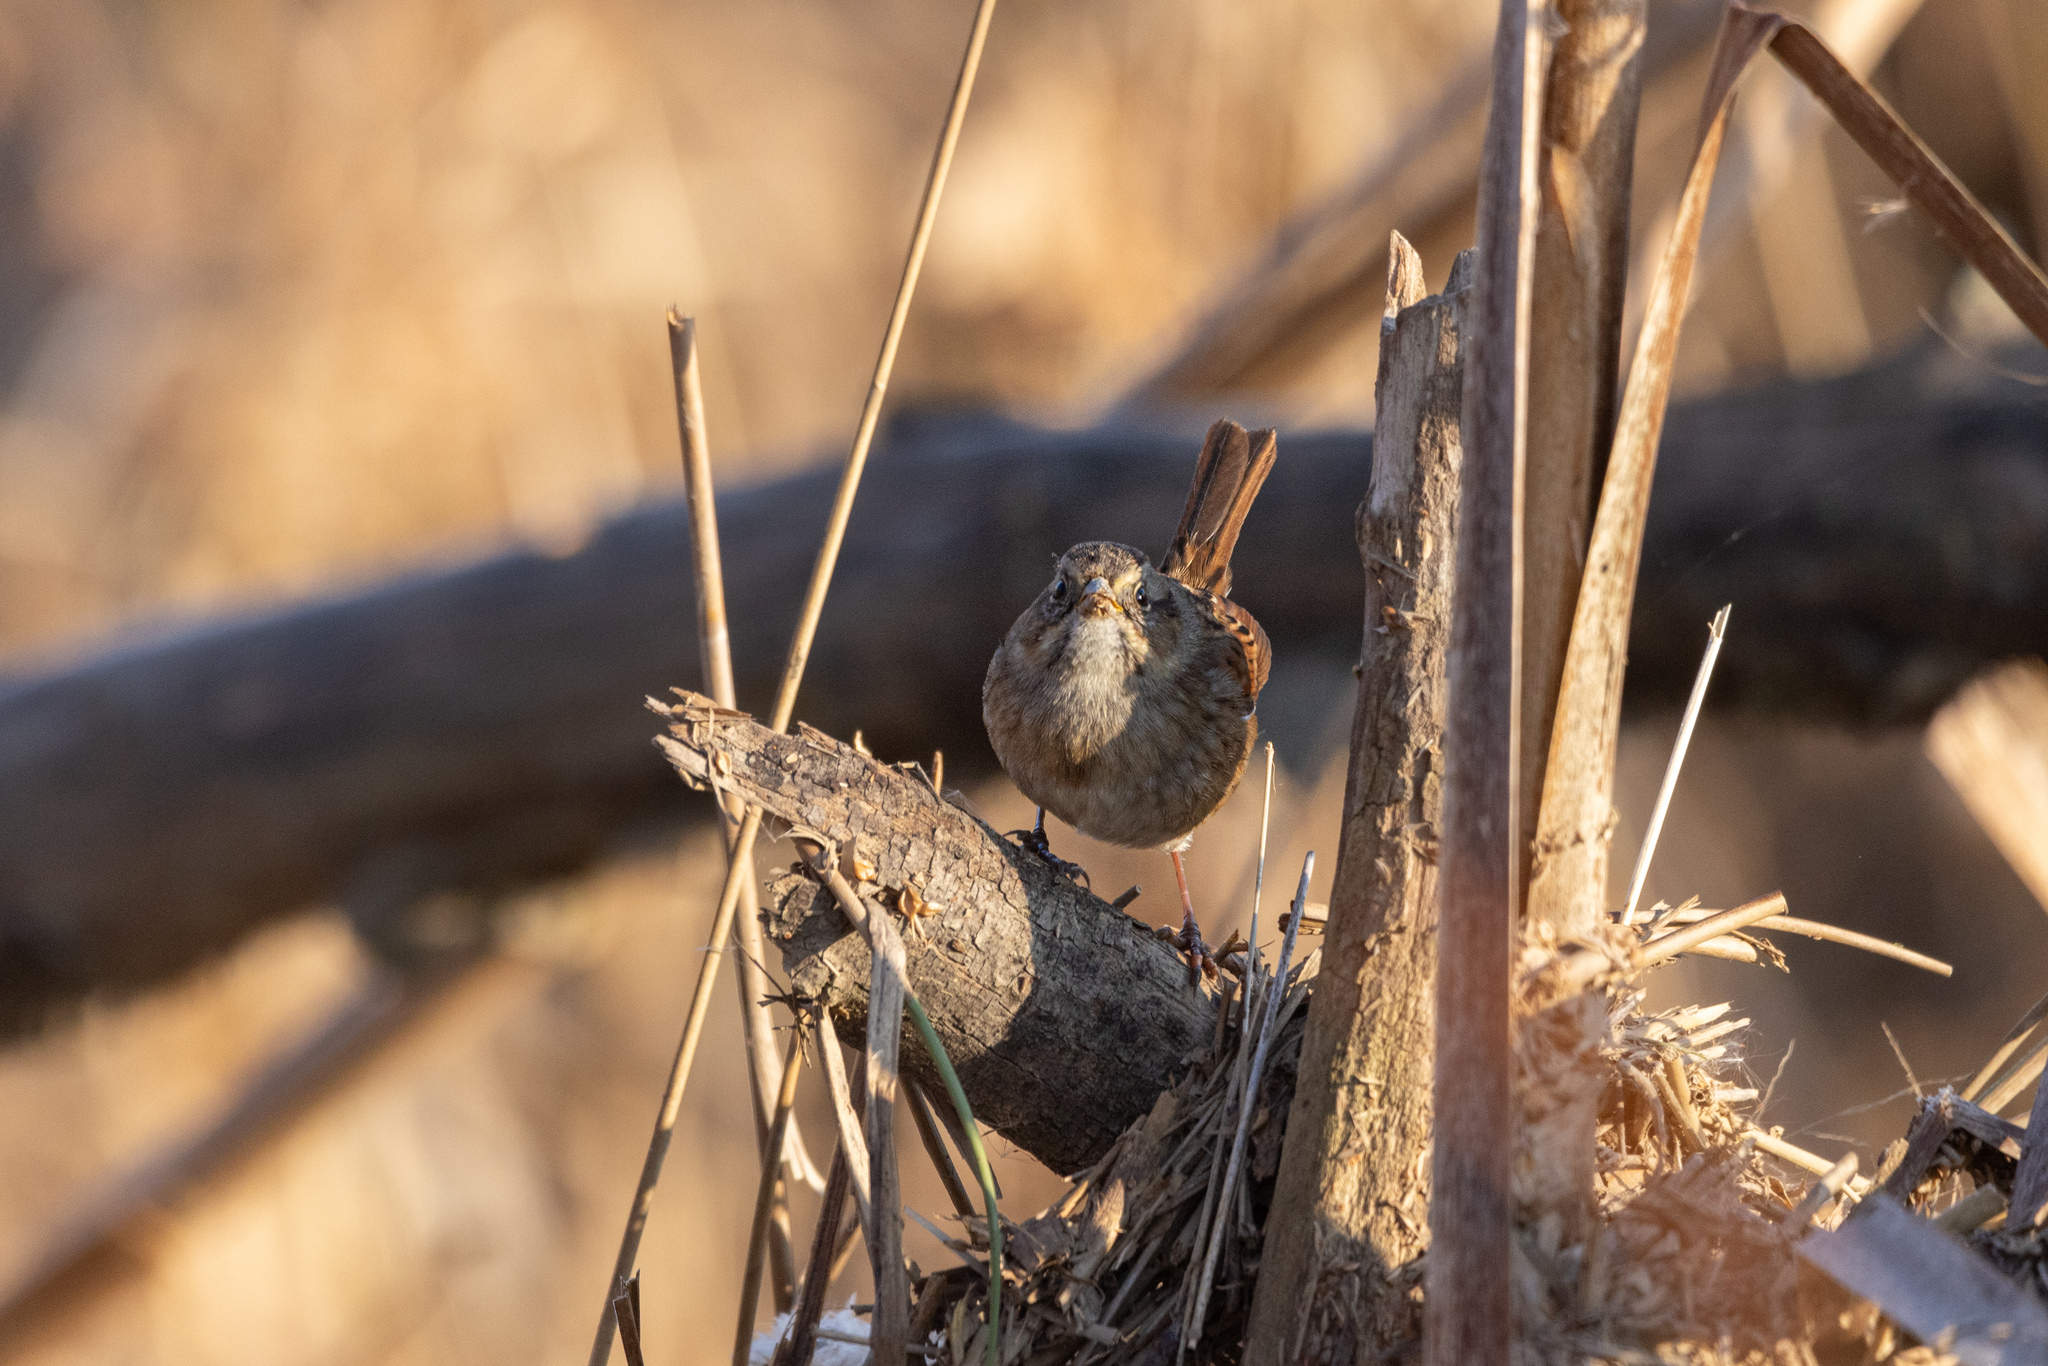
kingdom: Animalia
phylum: Chordata
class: Aves
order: Passeriformes
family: Passerellidae
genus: Melospiza
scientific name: Melospiza georgiana
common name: Swamp sparrow
